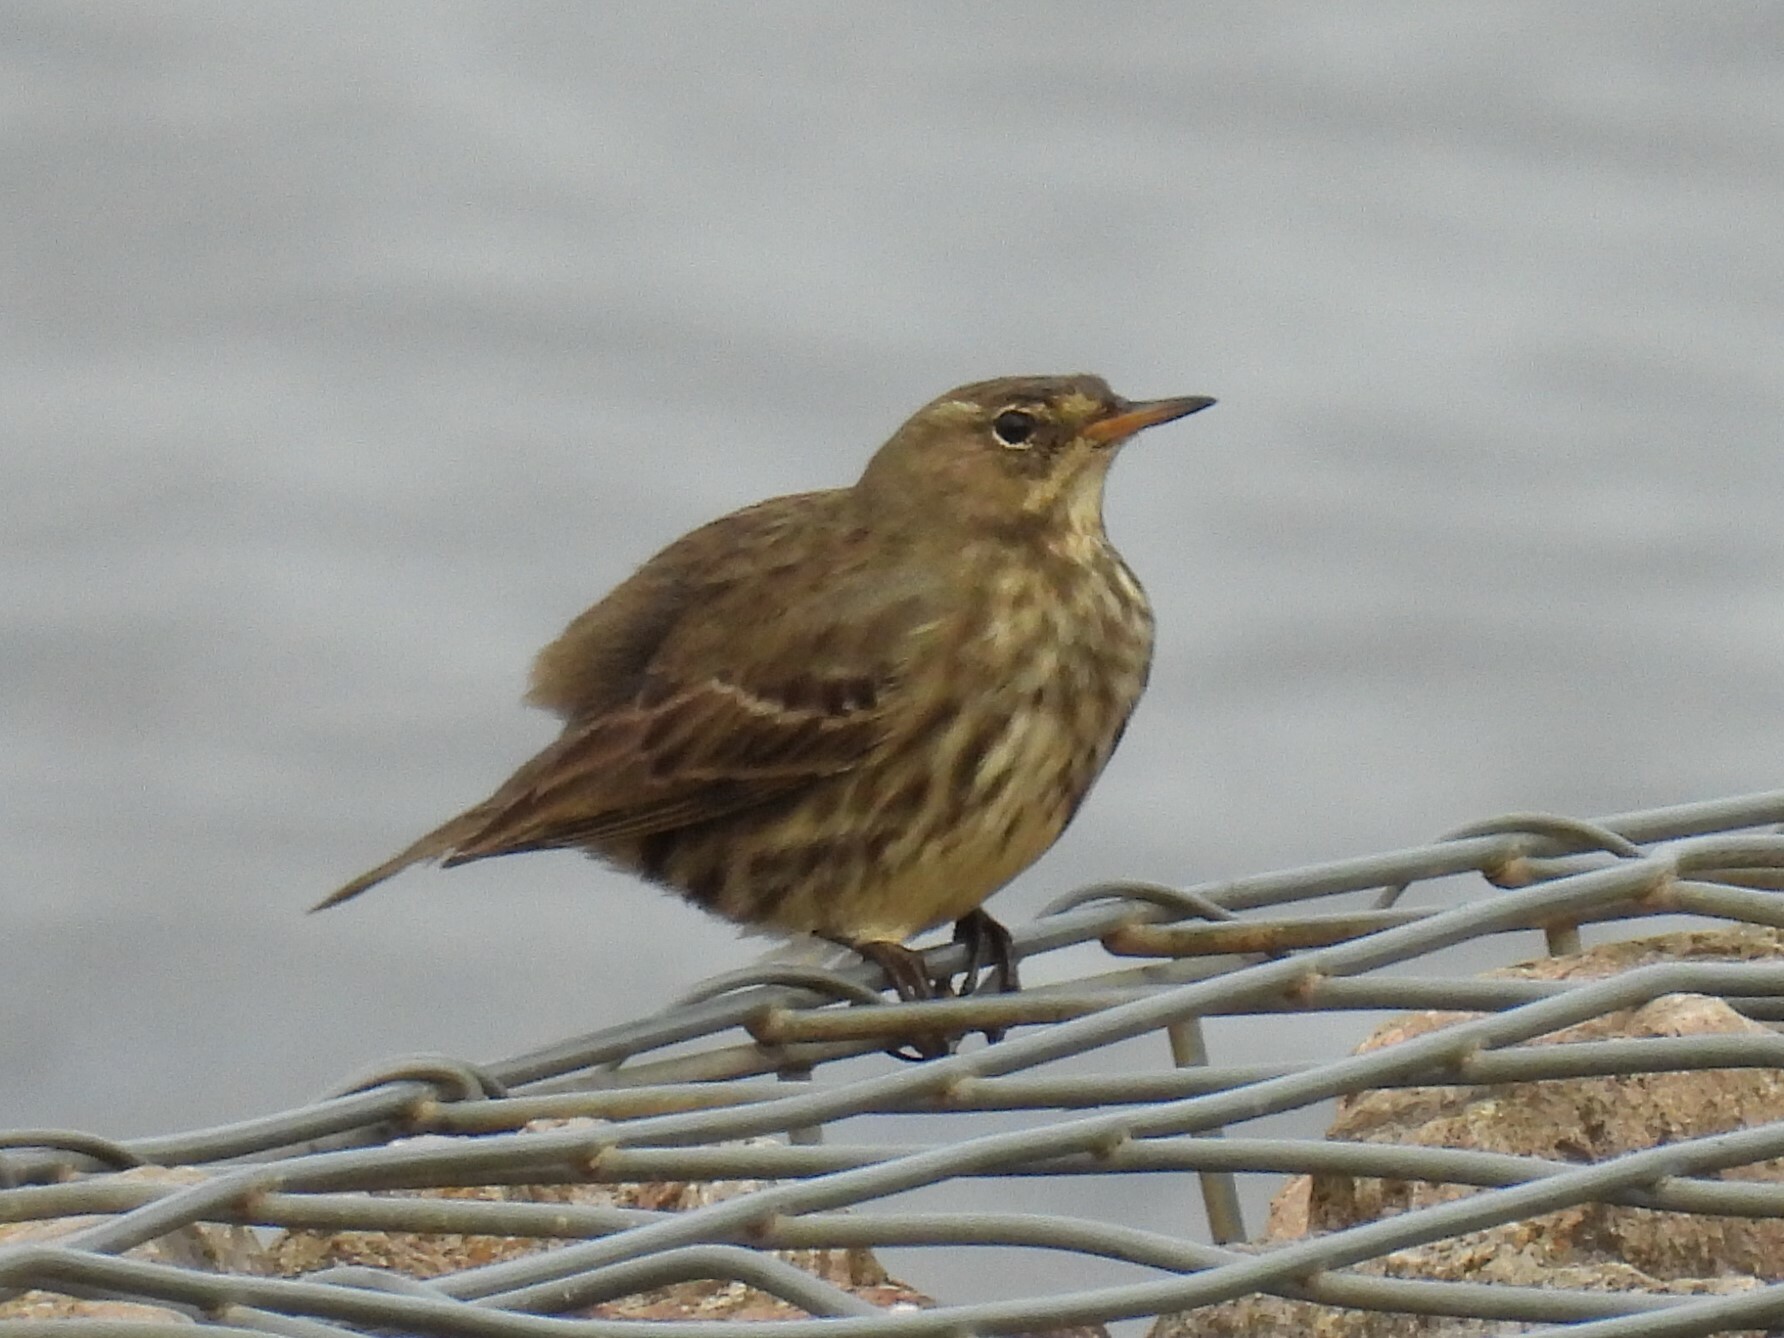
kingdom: Animalia
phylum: Chordata
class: Aves
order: Passeriformes
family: Motacillidae
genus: Anthus
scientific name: Anthus petrosus
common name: Eurasian rock pipit
